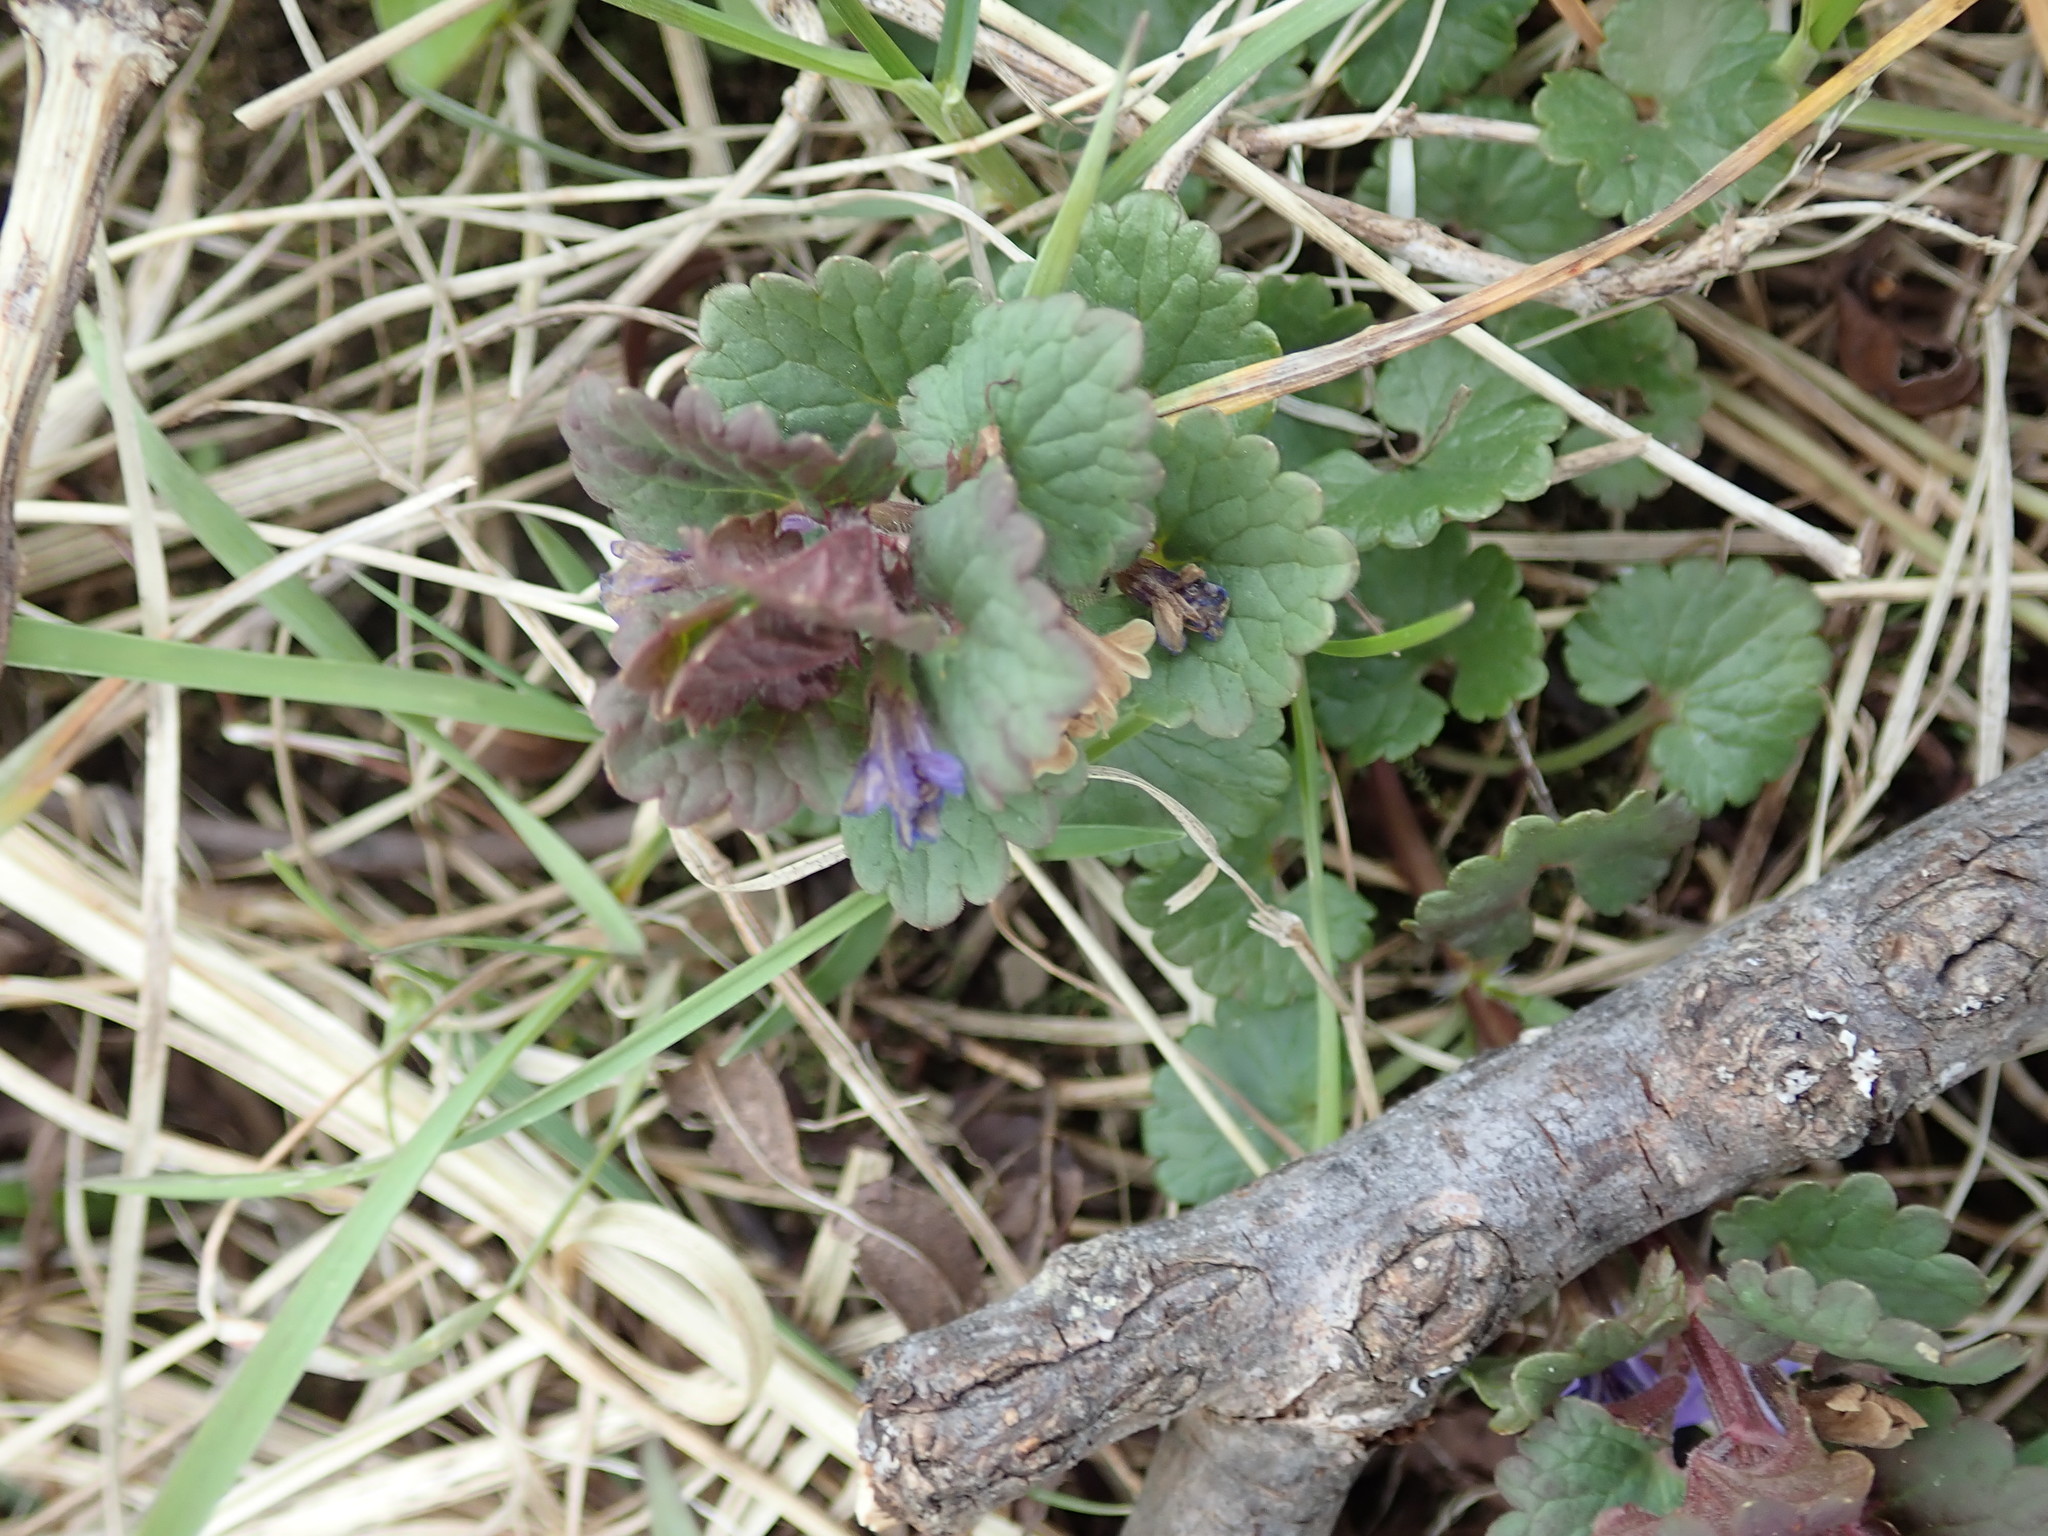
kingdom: Plantae
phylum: Tracheophyta
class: Magnoliopsida
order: Lamiales
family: Lamiaceae
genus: Glechoma
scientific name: Glechoma hederacea
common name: Ground ivy
